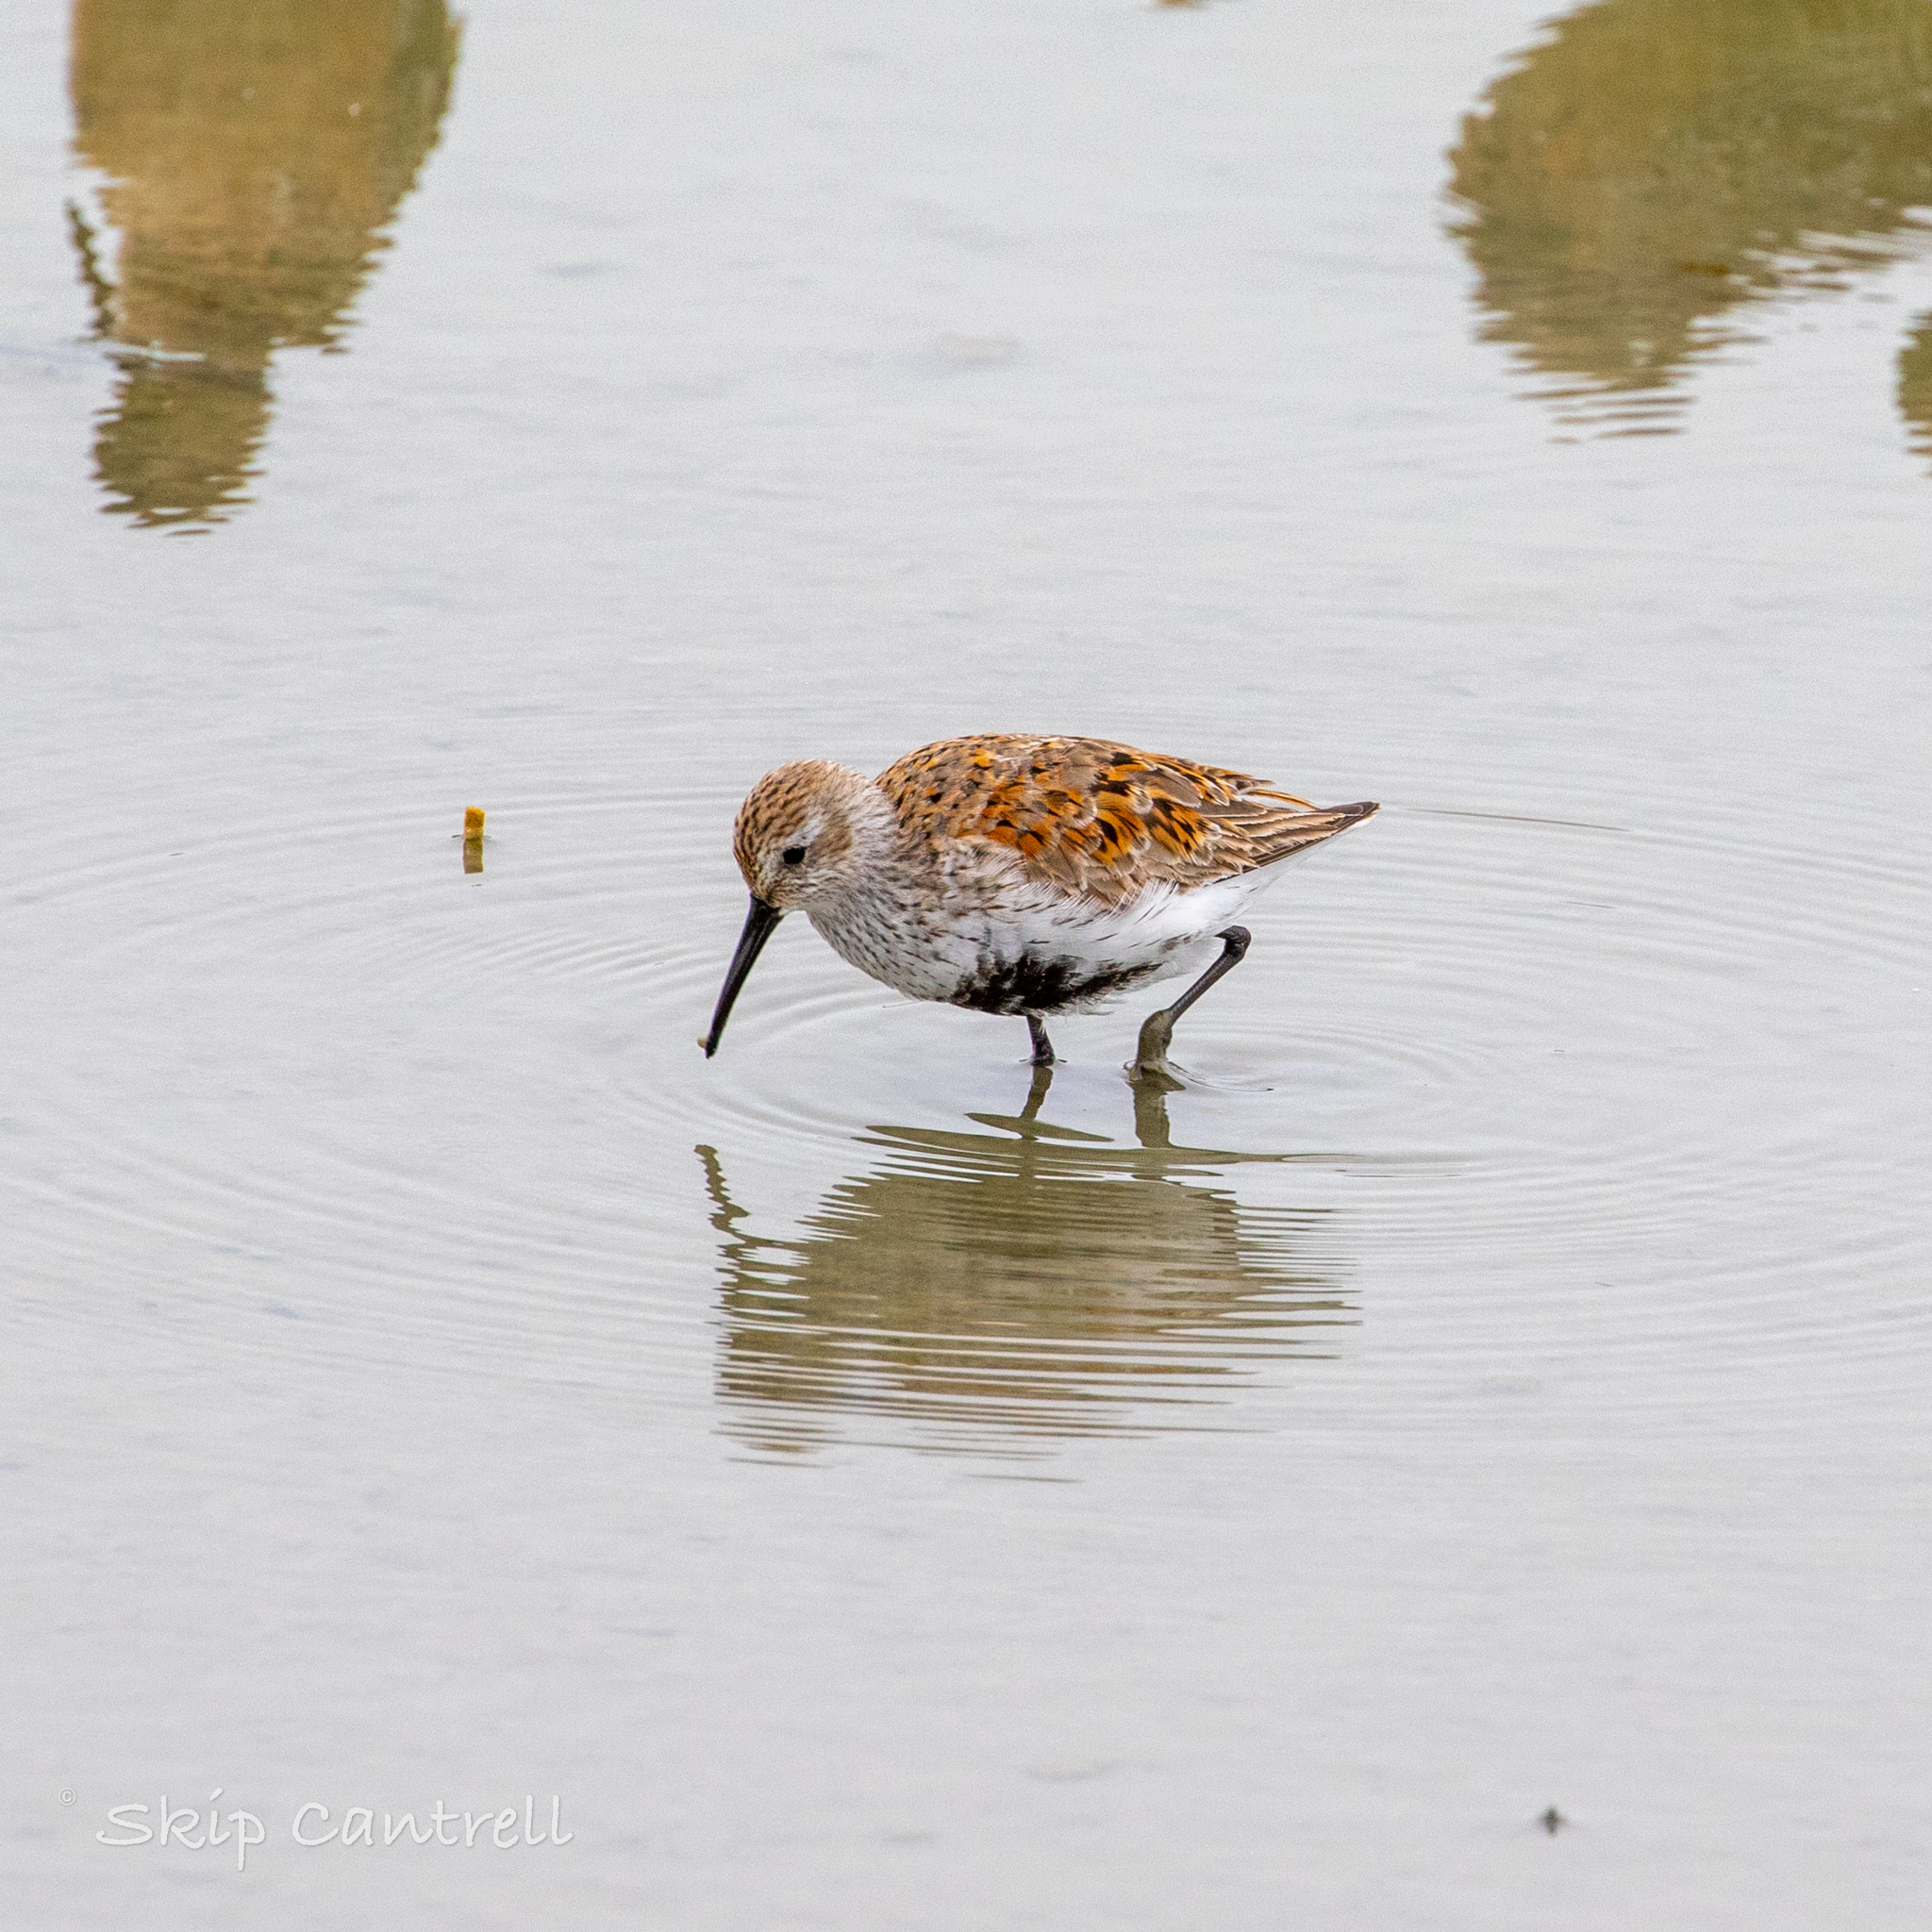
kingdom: Animalia
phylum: Chordata
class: Aves
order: Charadriiformes
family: Scolopacidae
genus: Calidris
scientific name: Calidris alpina
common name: Dunlin
